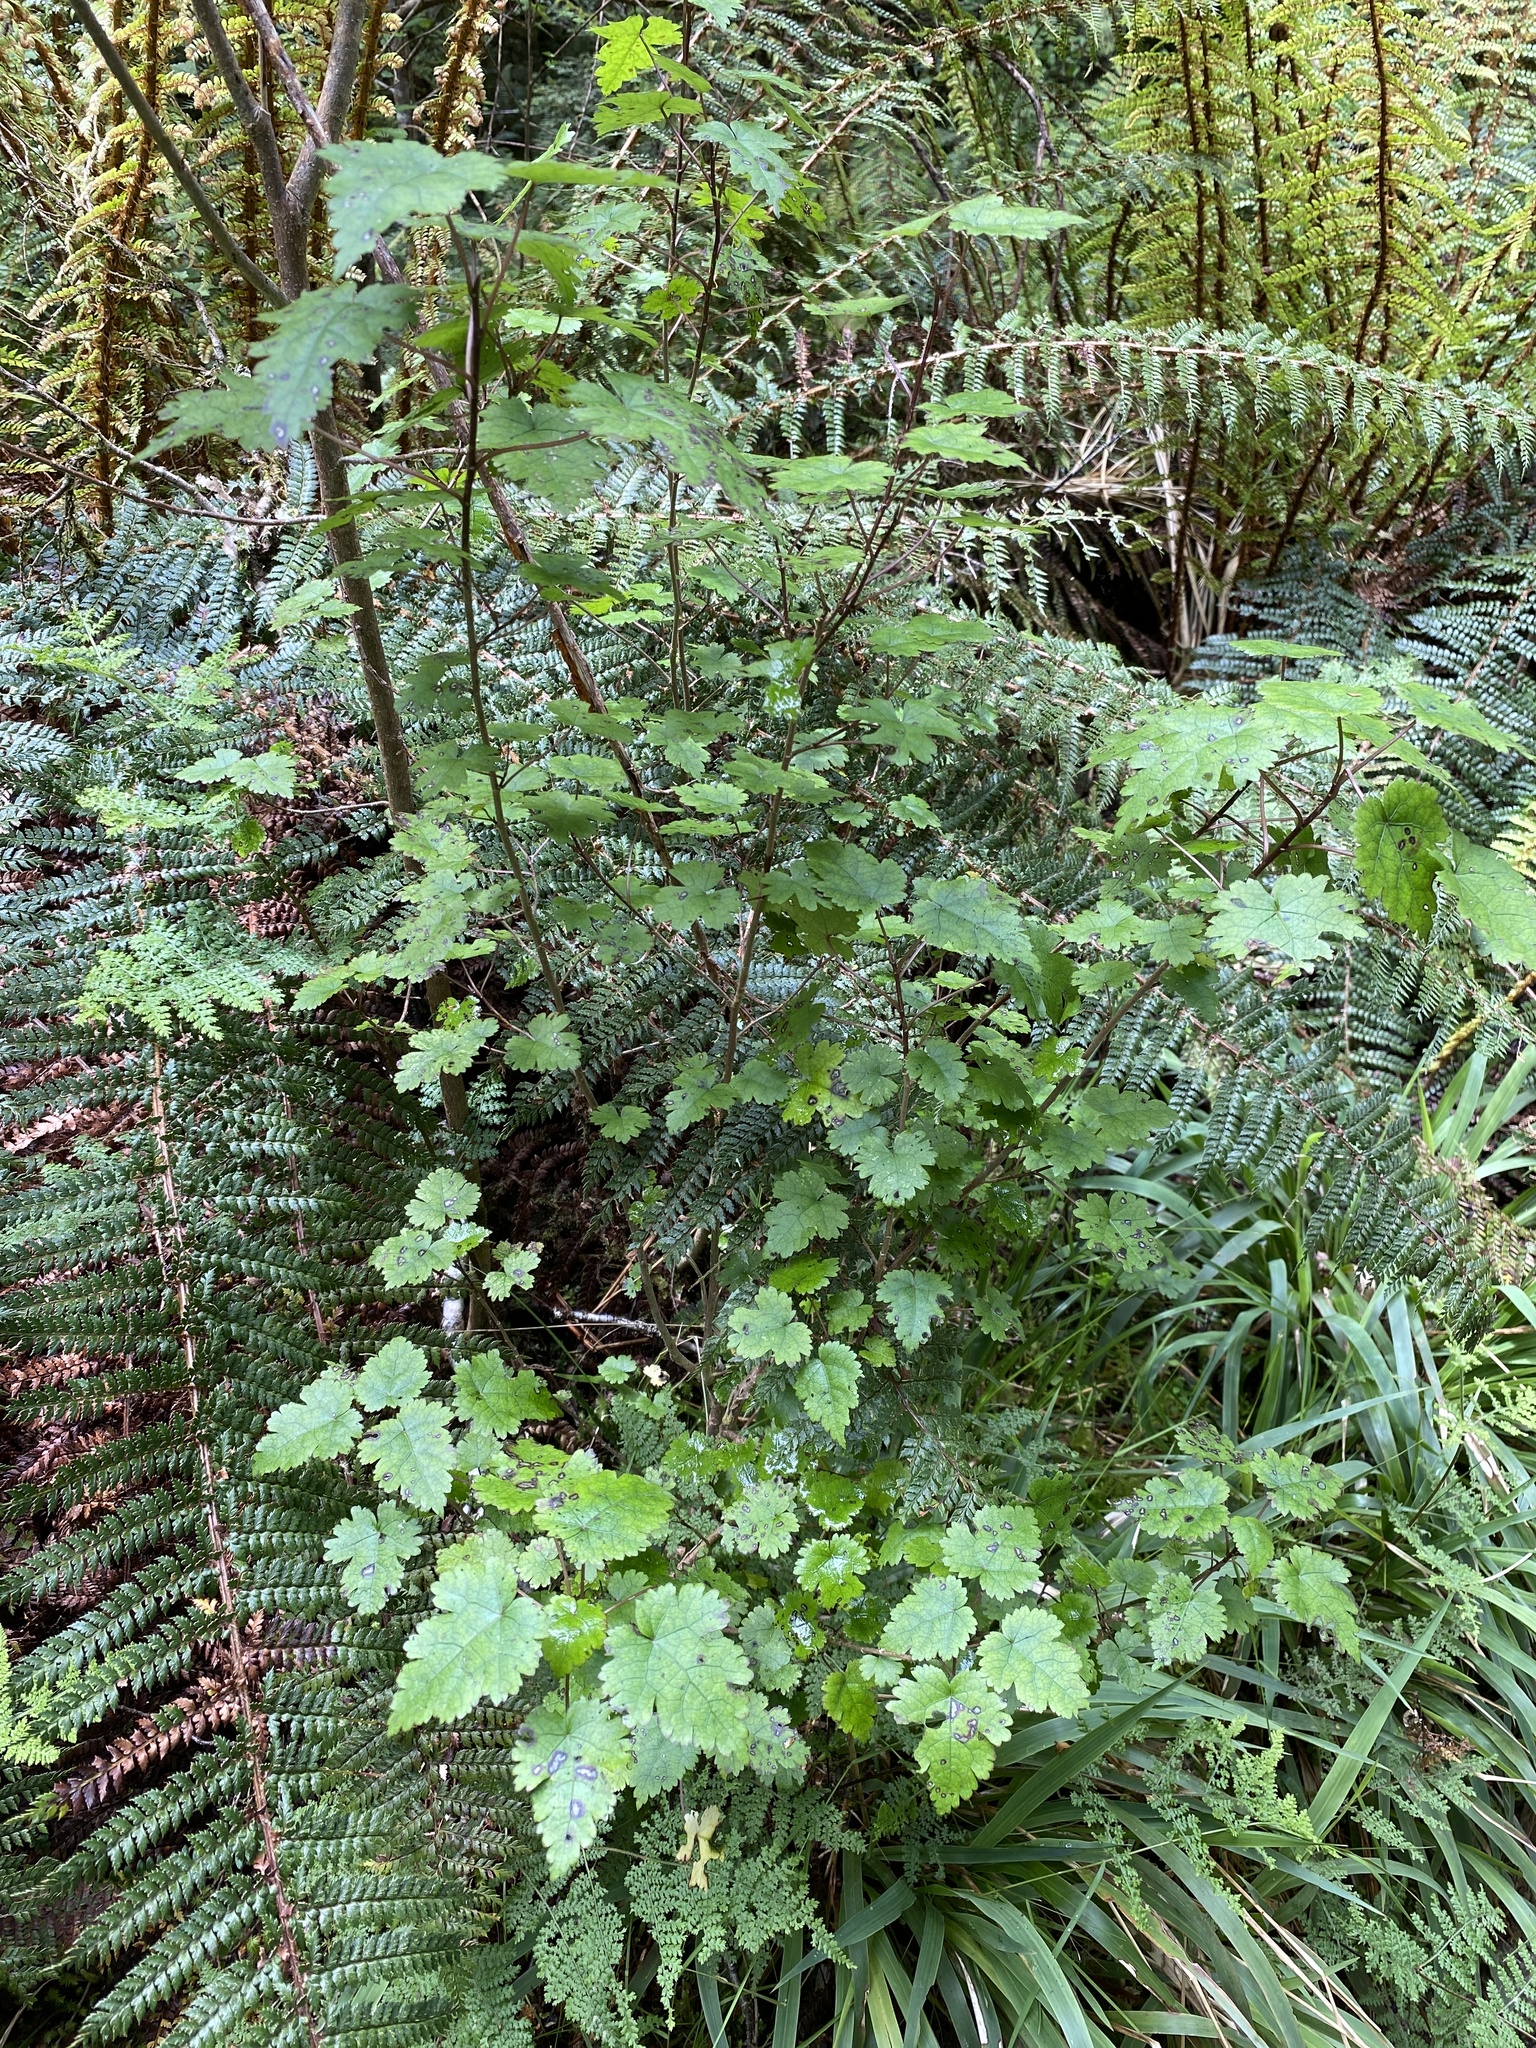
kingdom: Plantae
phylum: Tracheophyta
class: Magnoliopsida
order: Malvales
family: Malvaceae
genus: Hoheria
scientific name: Hoheria glabrata
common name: Mountain-ribbon
